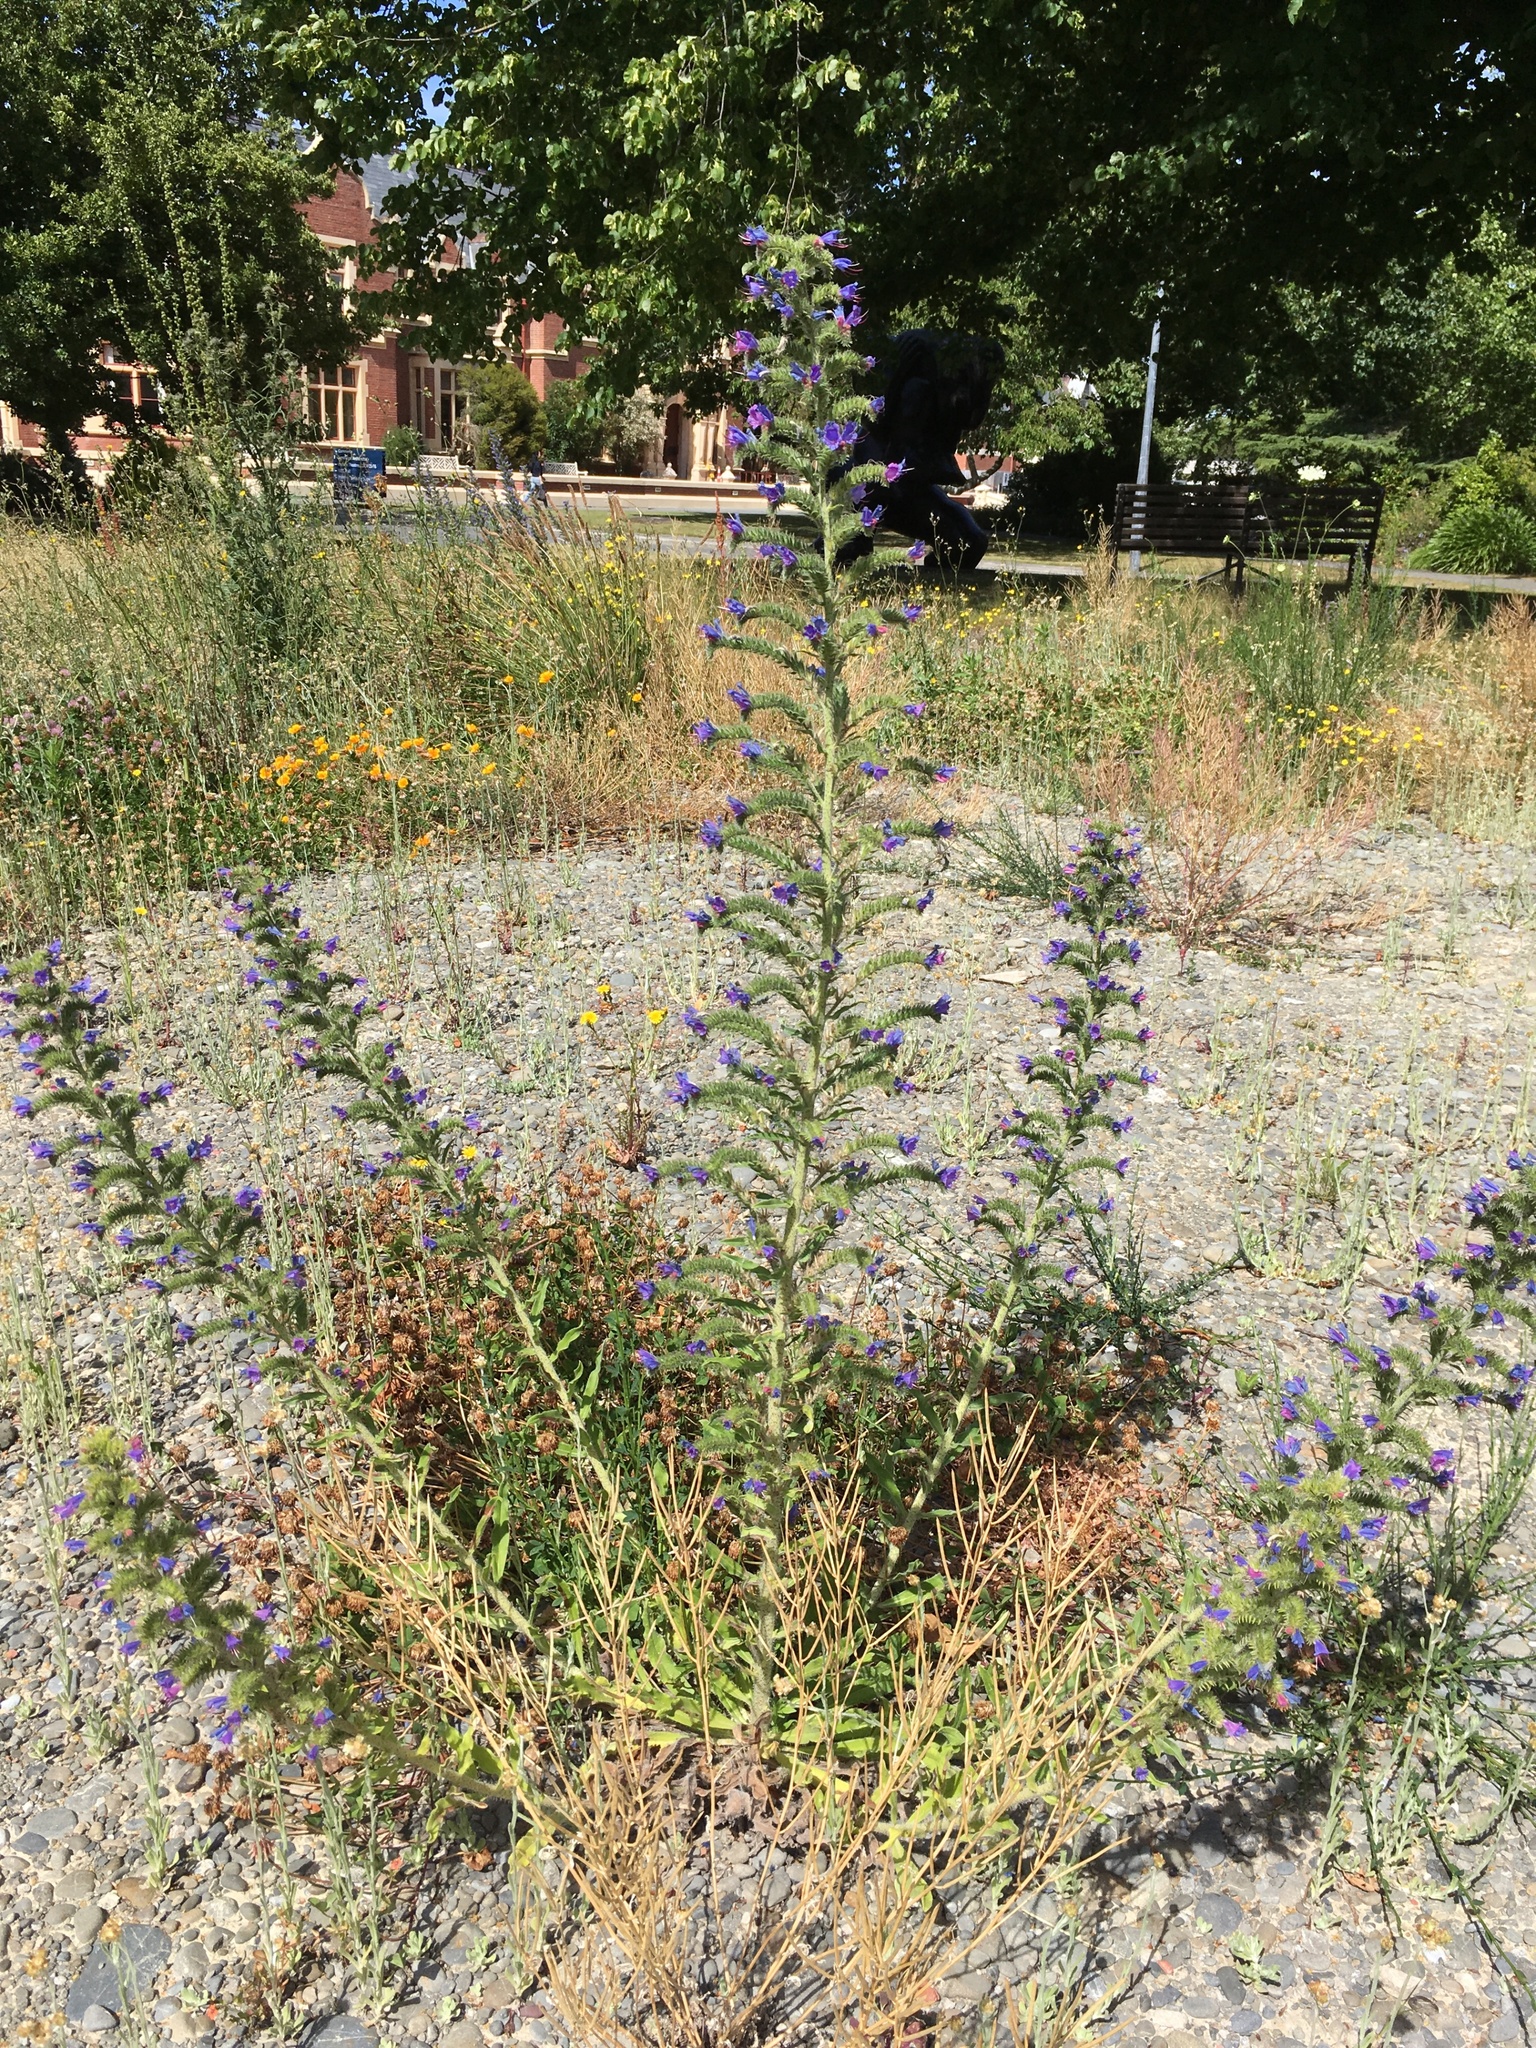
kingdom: Plantae
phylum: Tracheophyta
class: Magnoliopsida
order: Boraginales
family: Boraginaceae
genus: Echium
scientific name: Echium vulgare
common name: Common viper's bugloss
